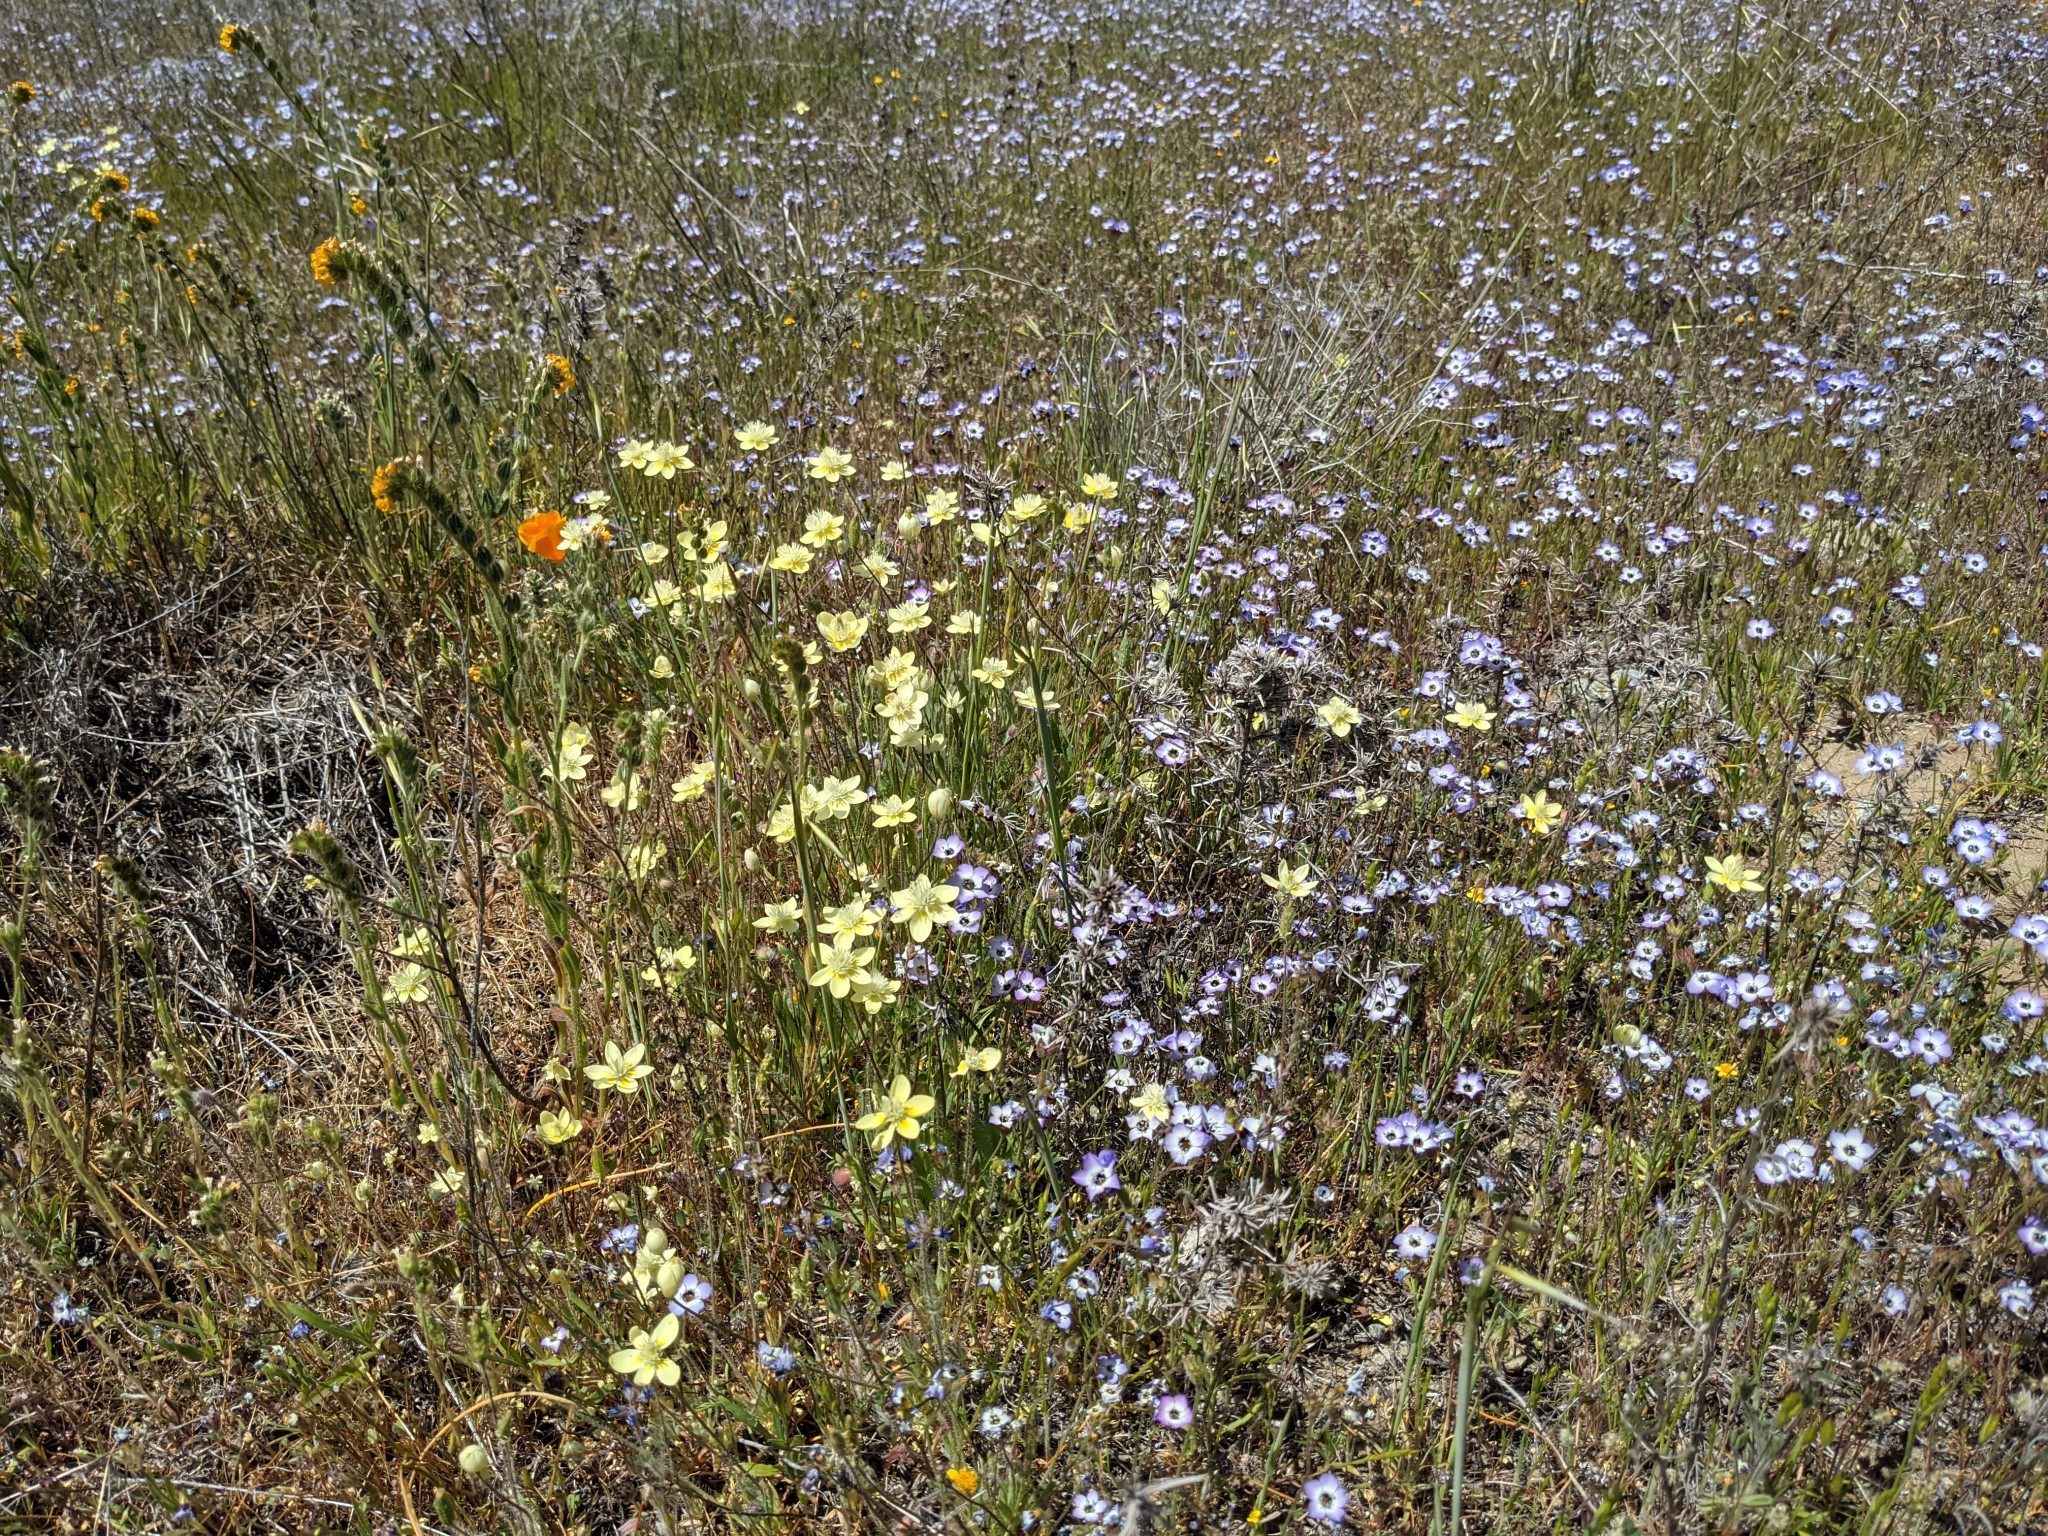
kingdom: Plantae
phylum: Tracheophyta
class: Magnoliopsida
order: Ranunculales
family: Papaveraceae
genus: Platystemon
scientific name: Platystemon californicus
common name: Cream-cups
